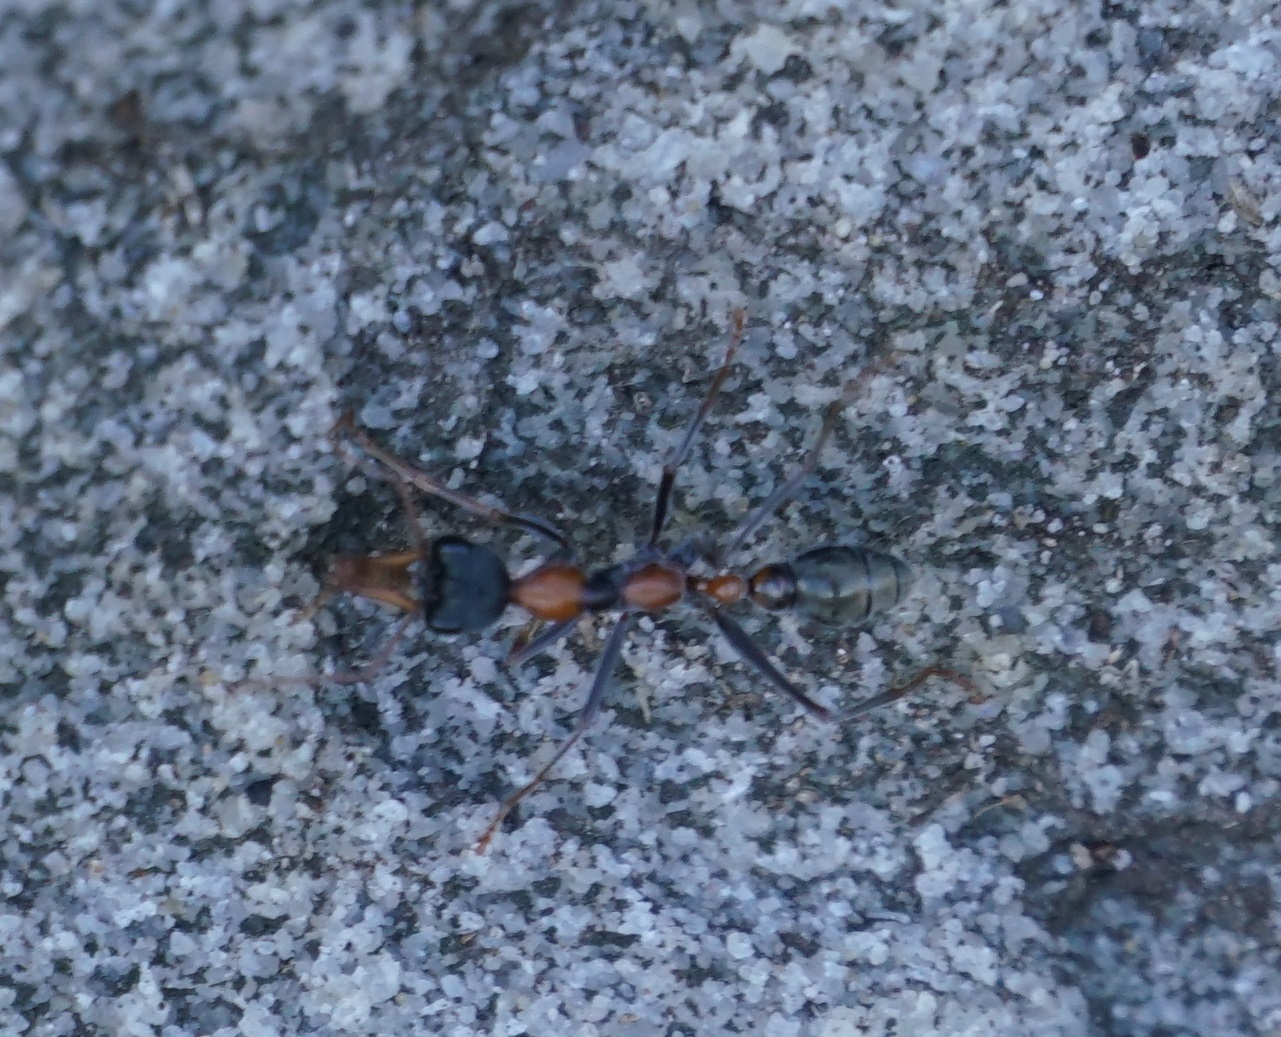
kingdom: Animalia
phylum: Arthropoda
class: Insecta
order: Hymenoptera
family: Formicidae
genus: Myrmecia
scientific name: Myrmecia nigrocincta
